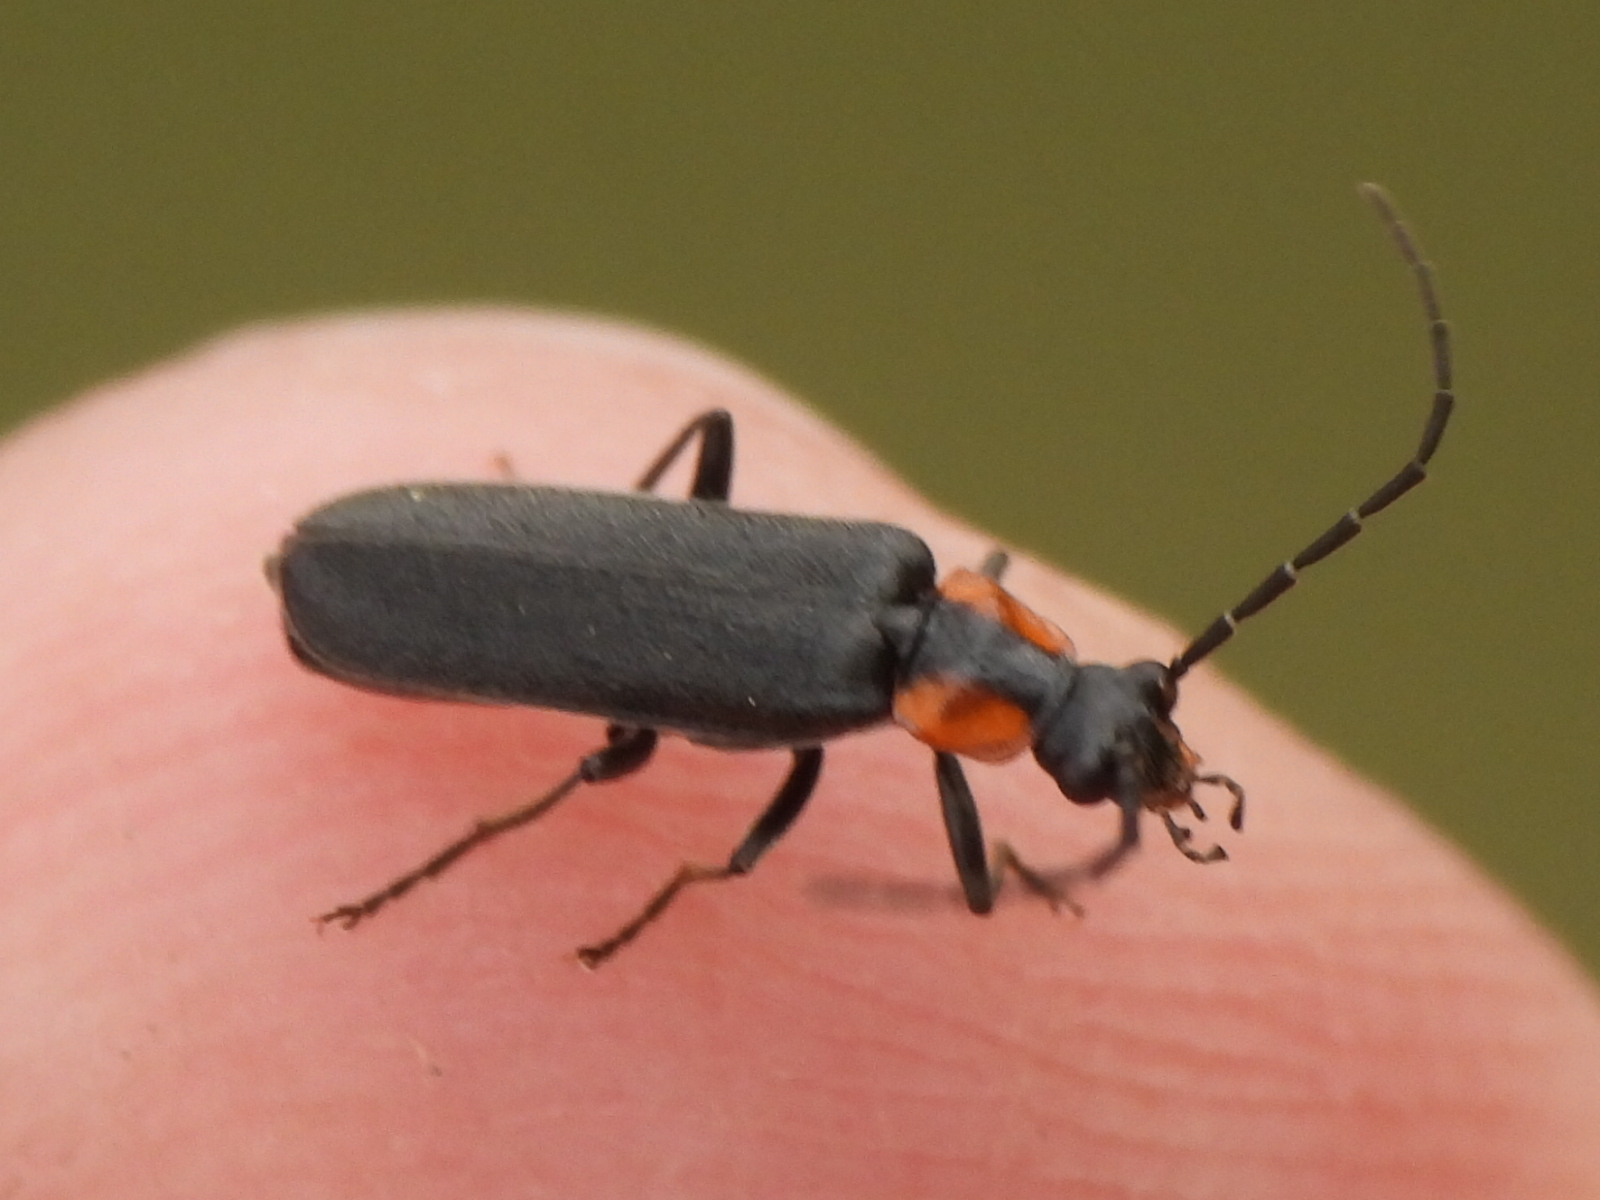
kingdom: Animalia
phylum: Arthropoda
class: Insecta
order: Coleoptera
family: Cantharidae
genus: Rhagonycha
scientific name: Rhagonycha lineola
